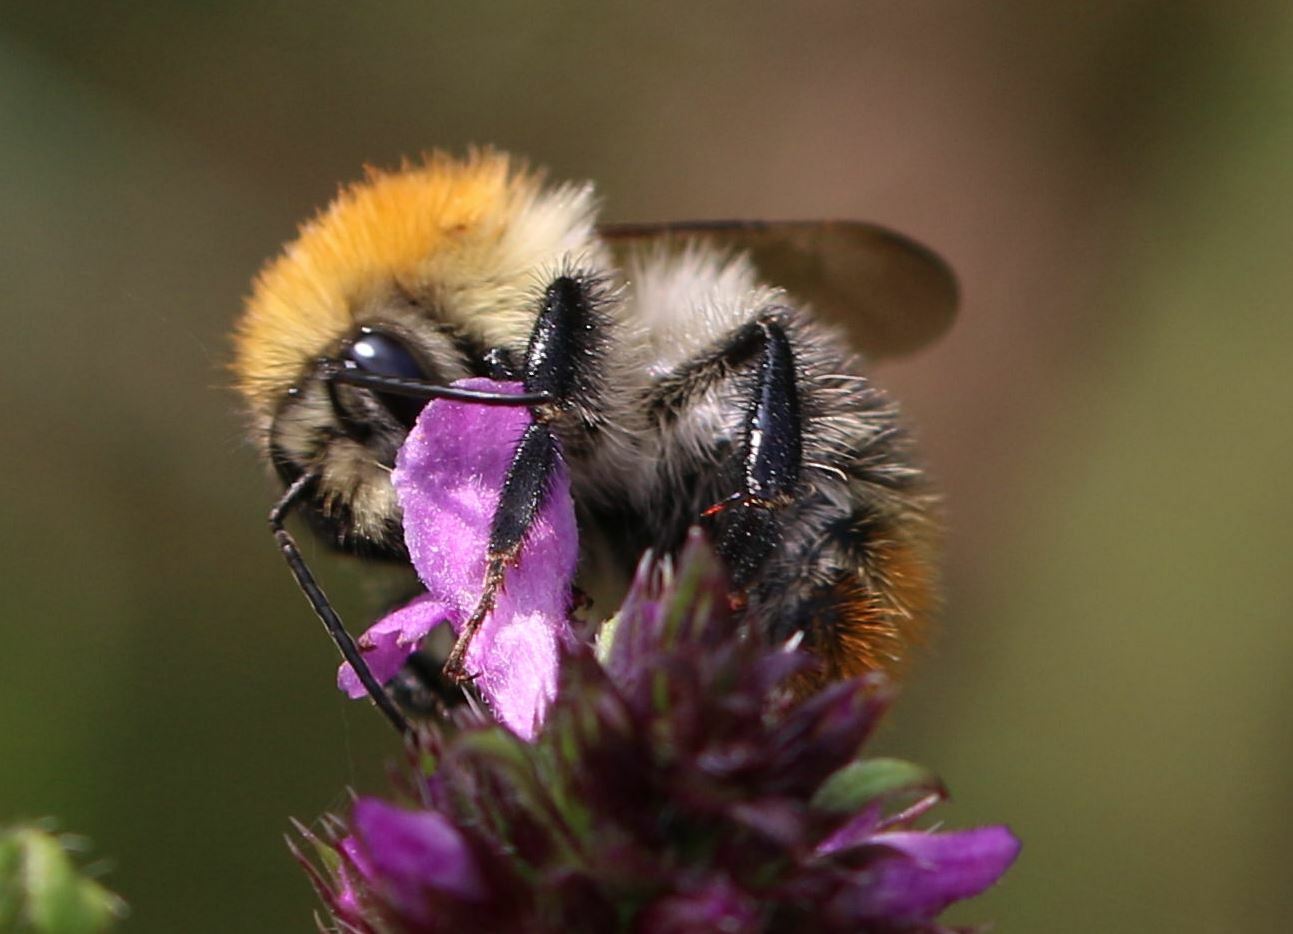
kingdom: Animalia
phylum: Arthropoda
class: Insecta
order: Hymenoptera
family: Apidae
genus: Bombus
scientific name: Bombus pascuorum
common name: Common carder bee
